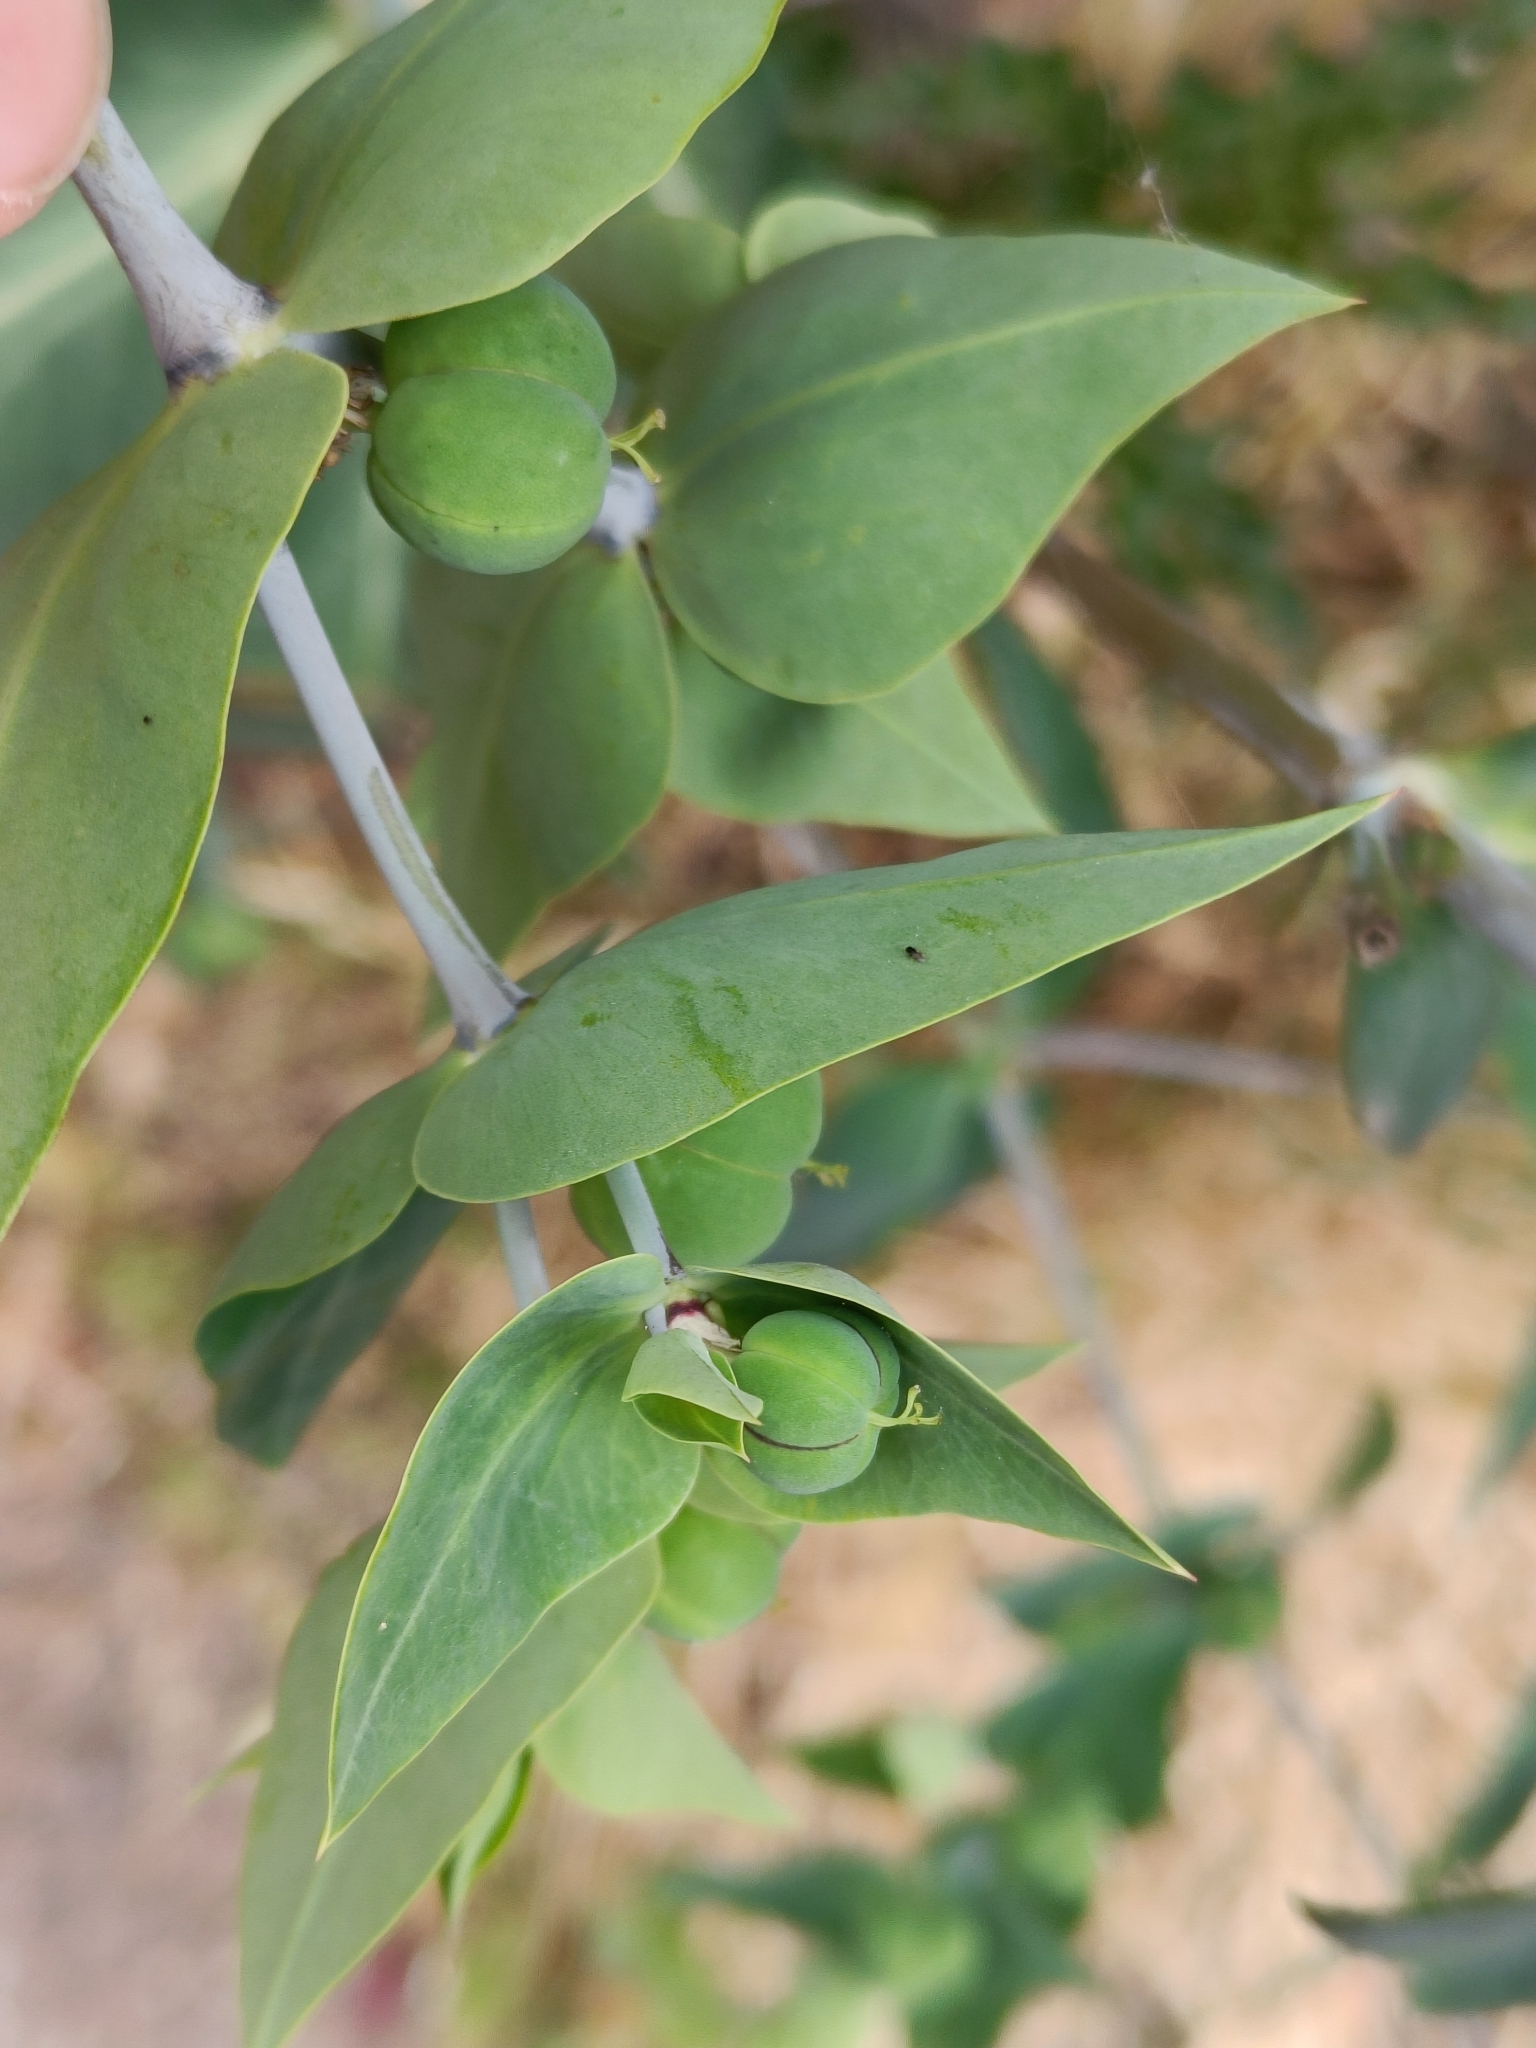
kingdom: Plantae
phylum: Tracheophyta
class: Magnoliopsida
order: Malpighiales
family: Euphorbiaceae
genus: Euphorbia
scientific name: Euphorbia lathyris
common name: Caper spurge
